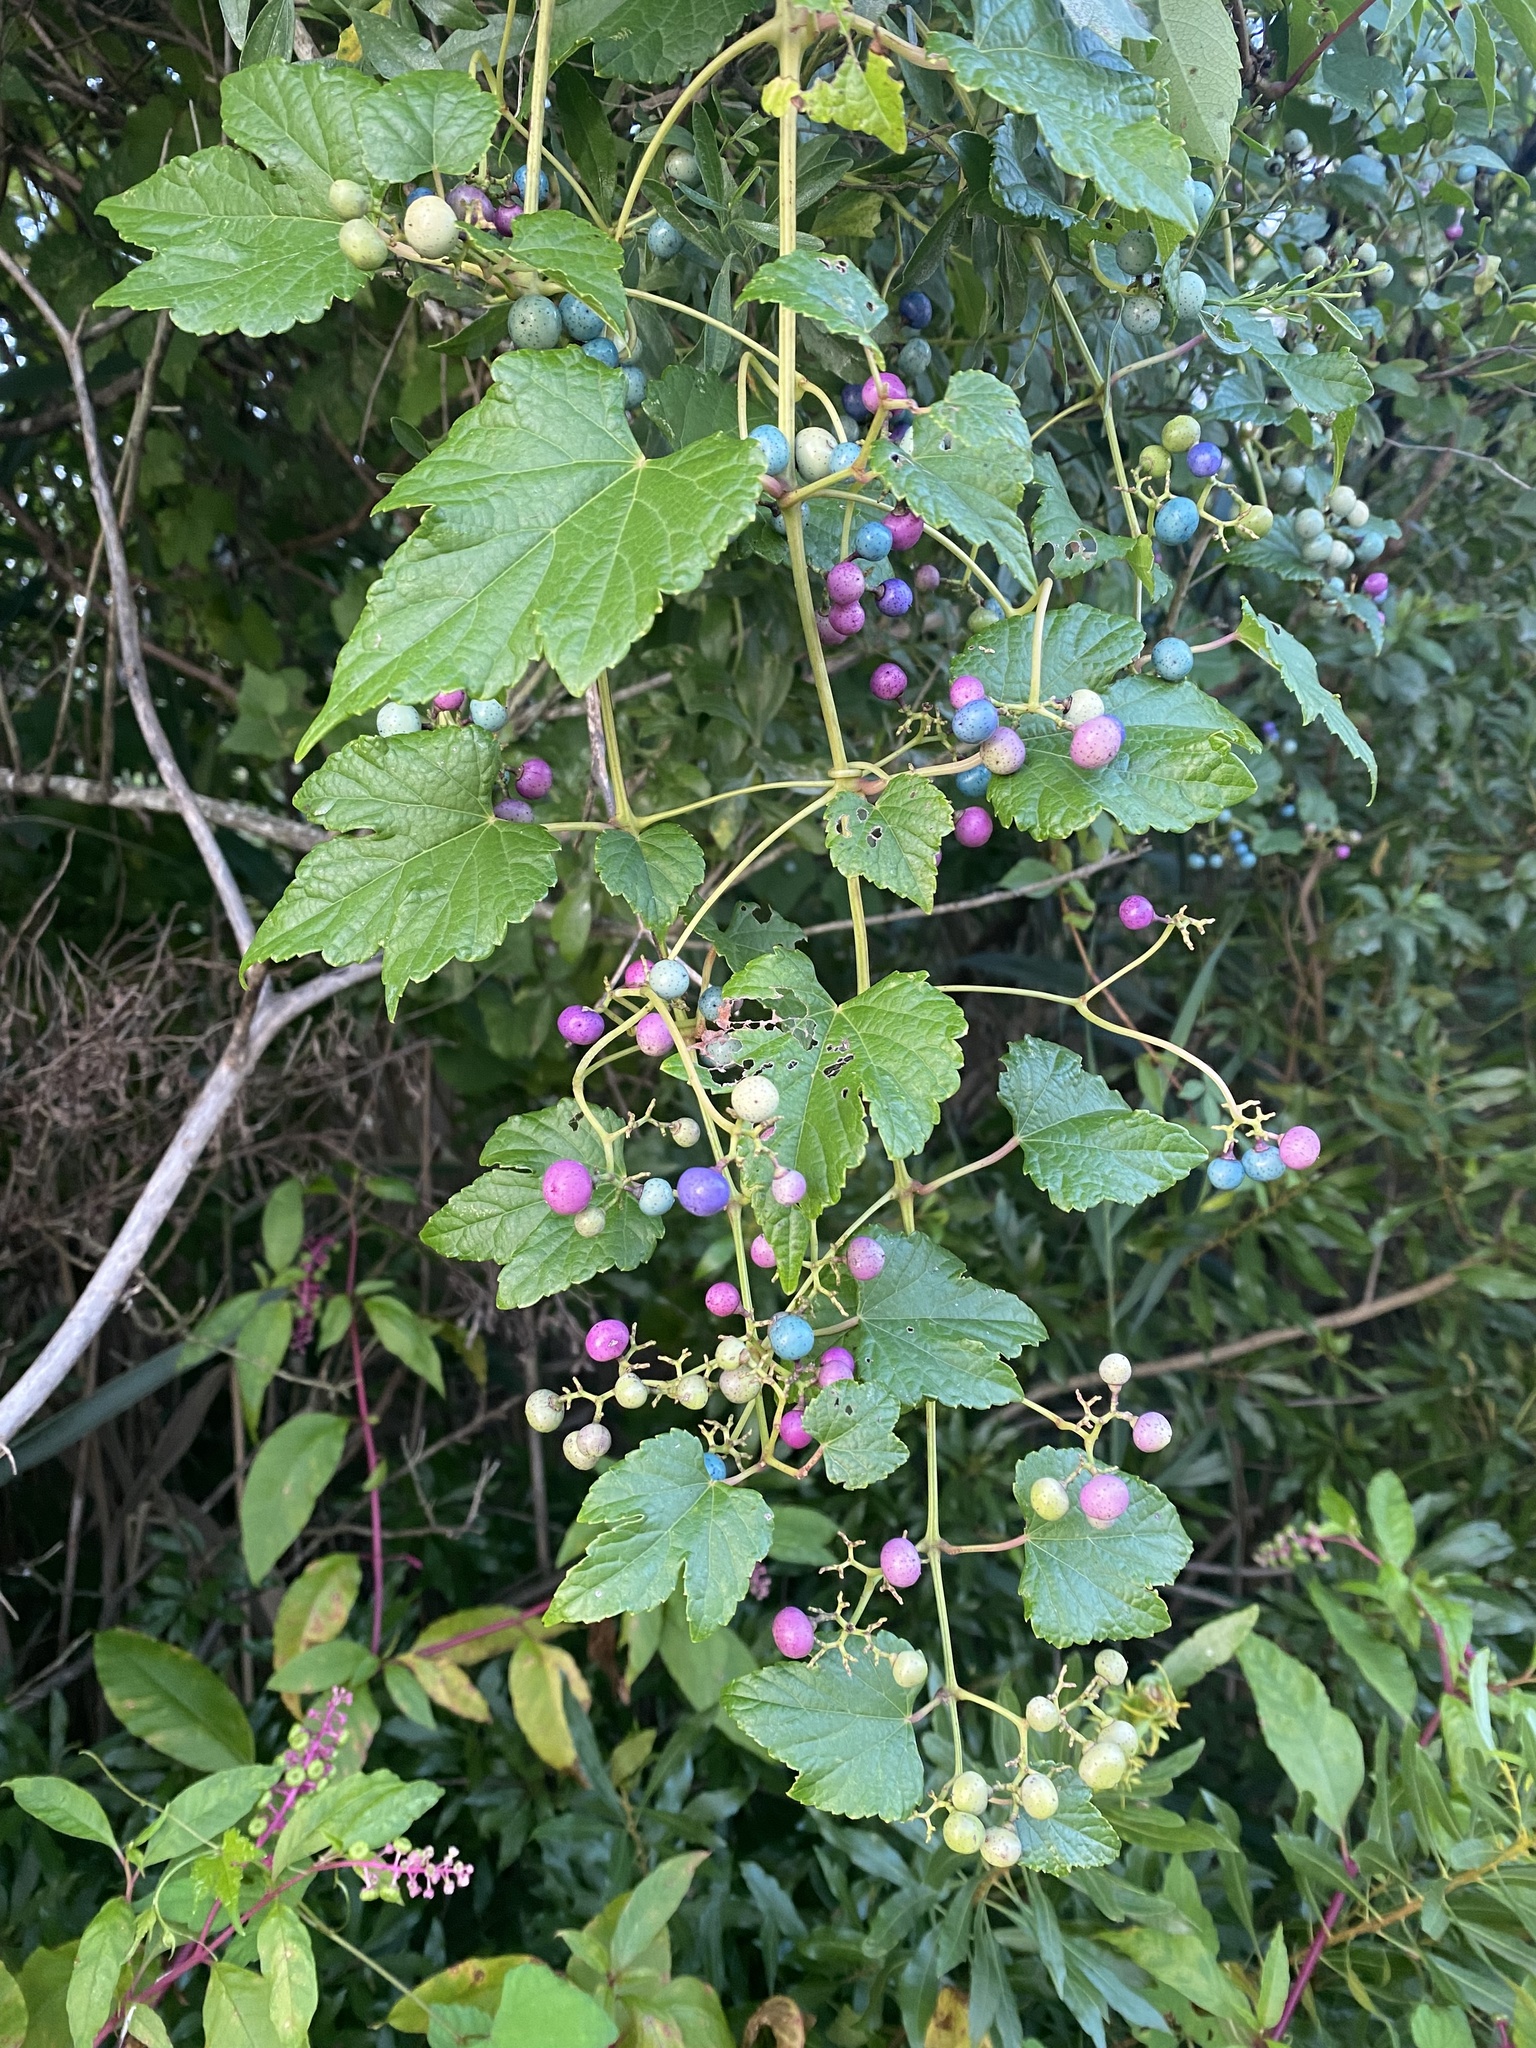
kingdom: Plantae
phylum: Tracheophyta
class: Magnoliopsida
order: Vitales
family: Vitaceae
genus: Ampelopsis
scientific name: Ampelopsis glandulosa
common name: Amur peppervine
